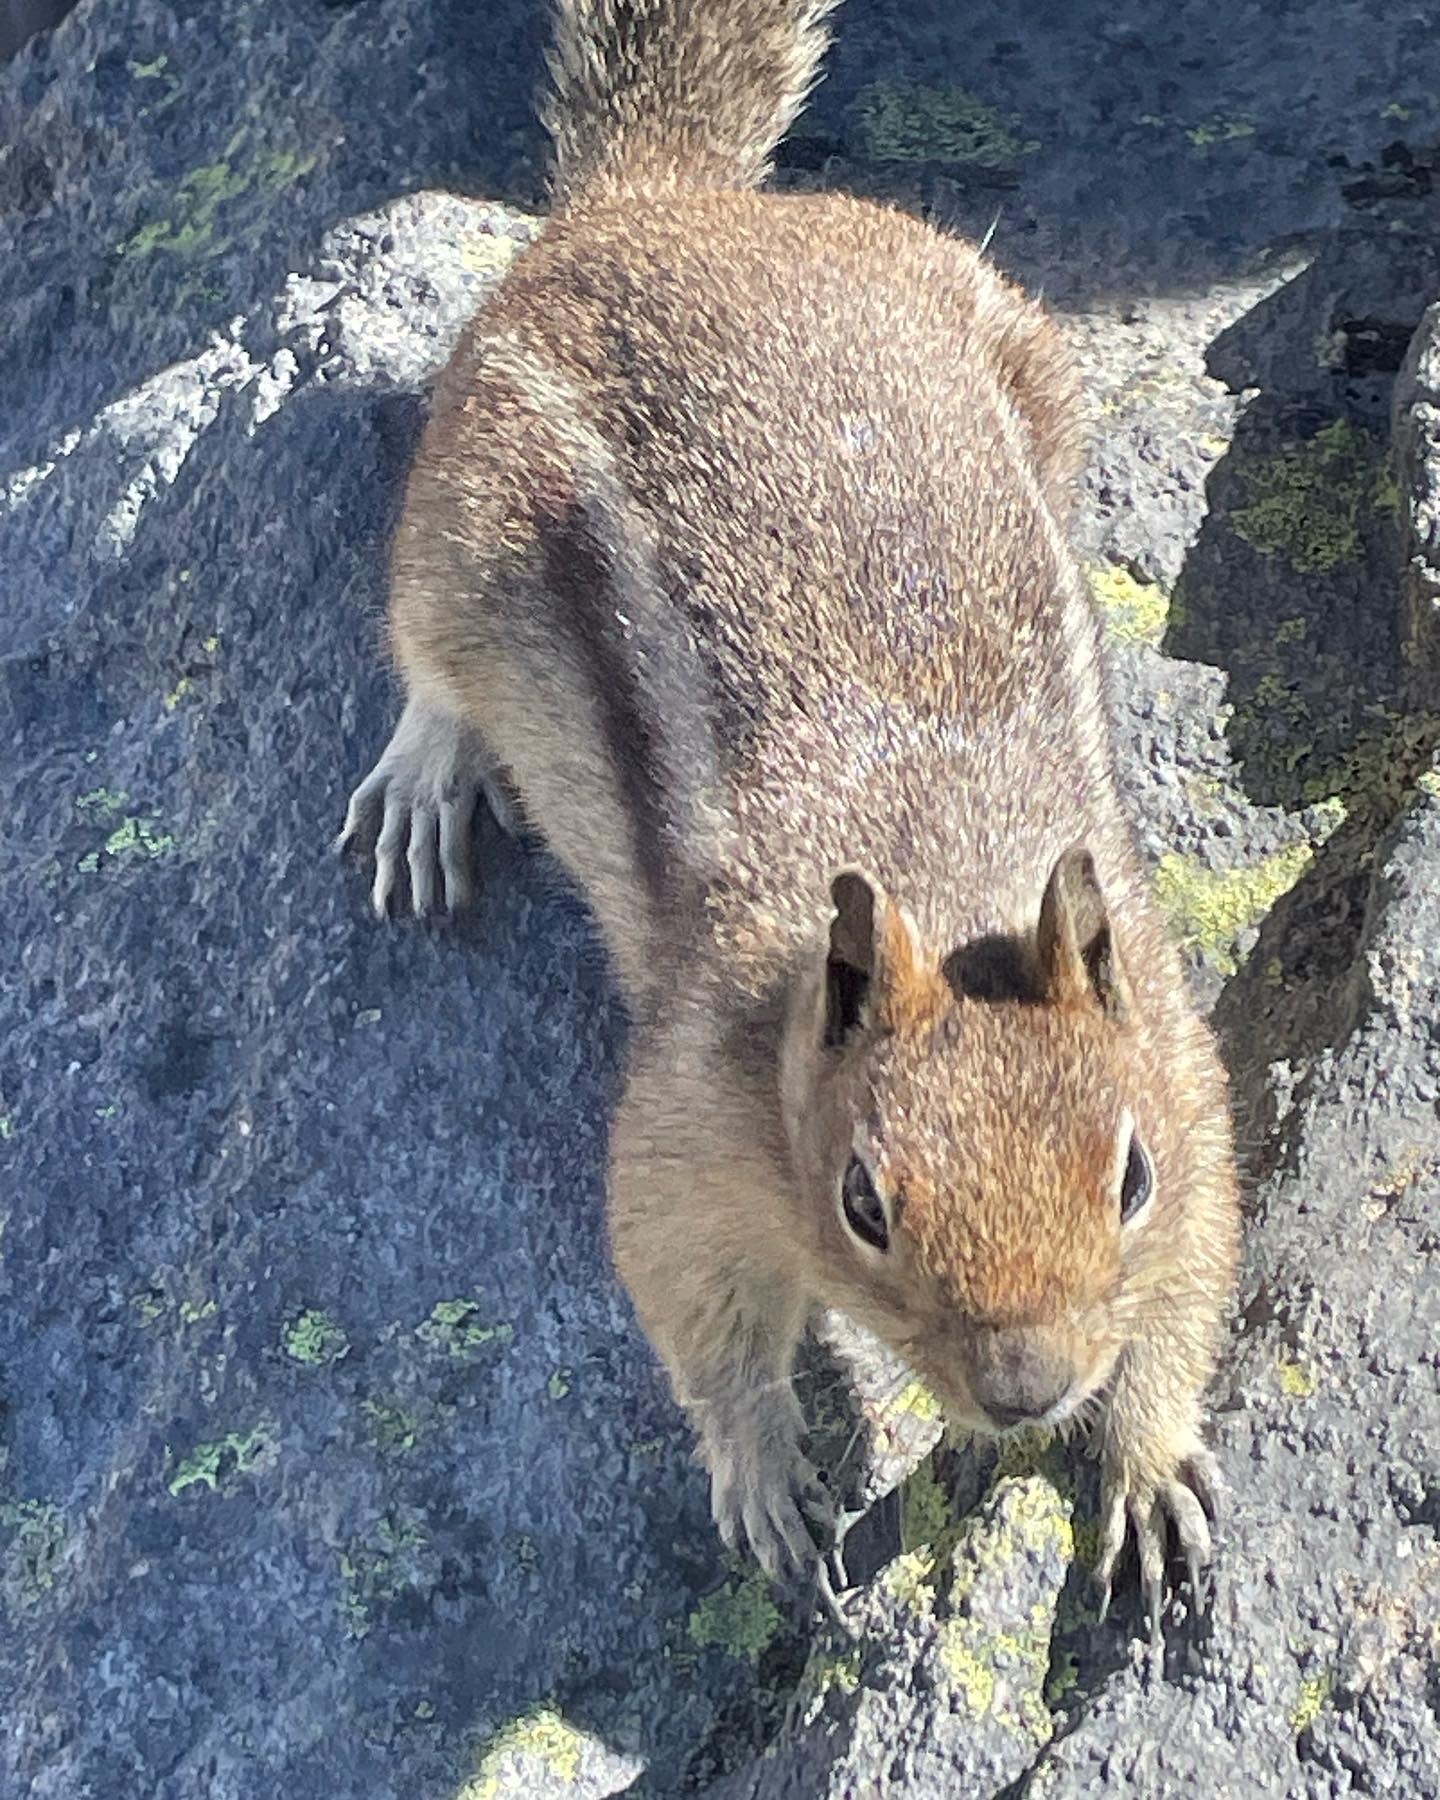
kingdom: Animalia
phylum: Chordata
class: Mammalia
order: Rodentia
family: Sciuridae
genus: Callospermophilus
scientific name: Callospermophilus saturatus
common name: Cascade golden-mantled ground squirrel
